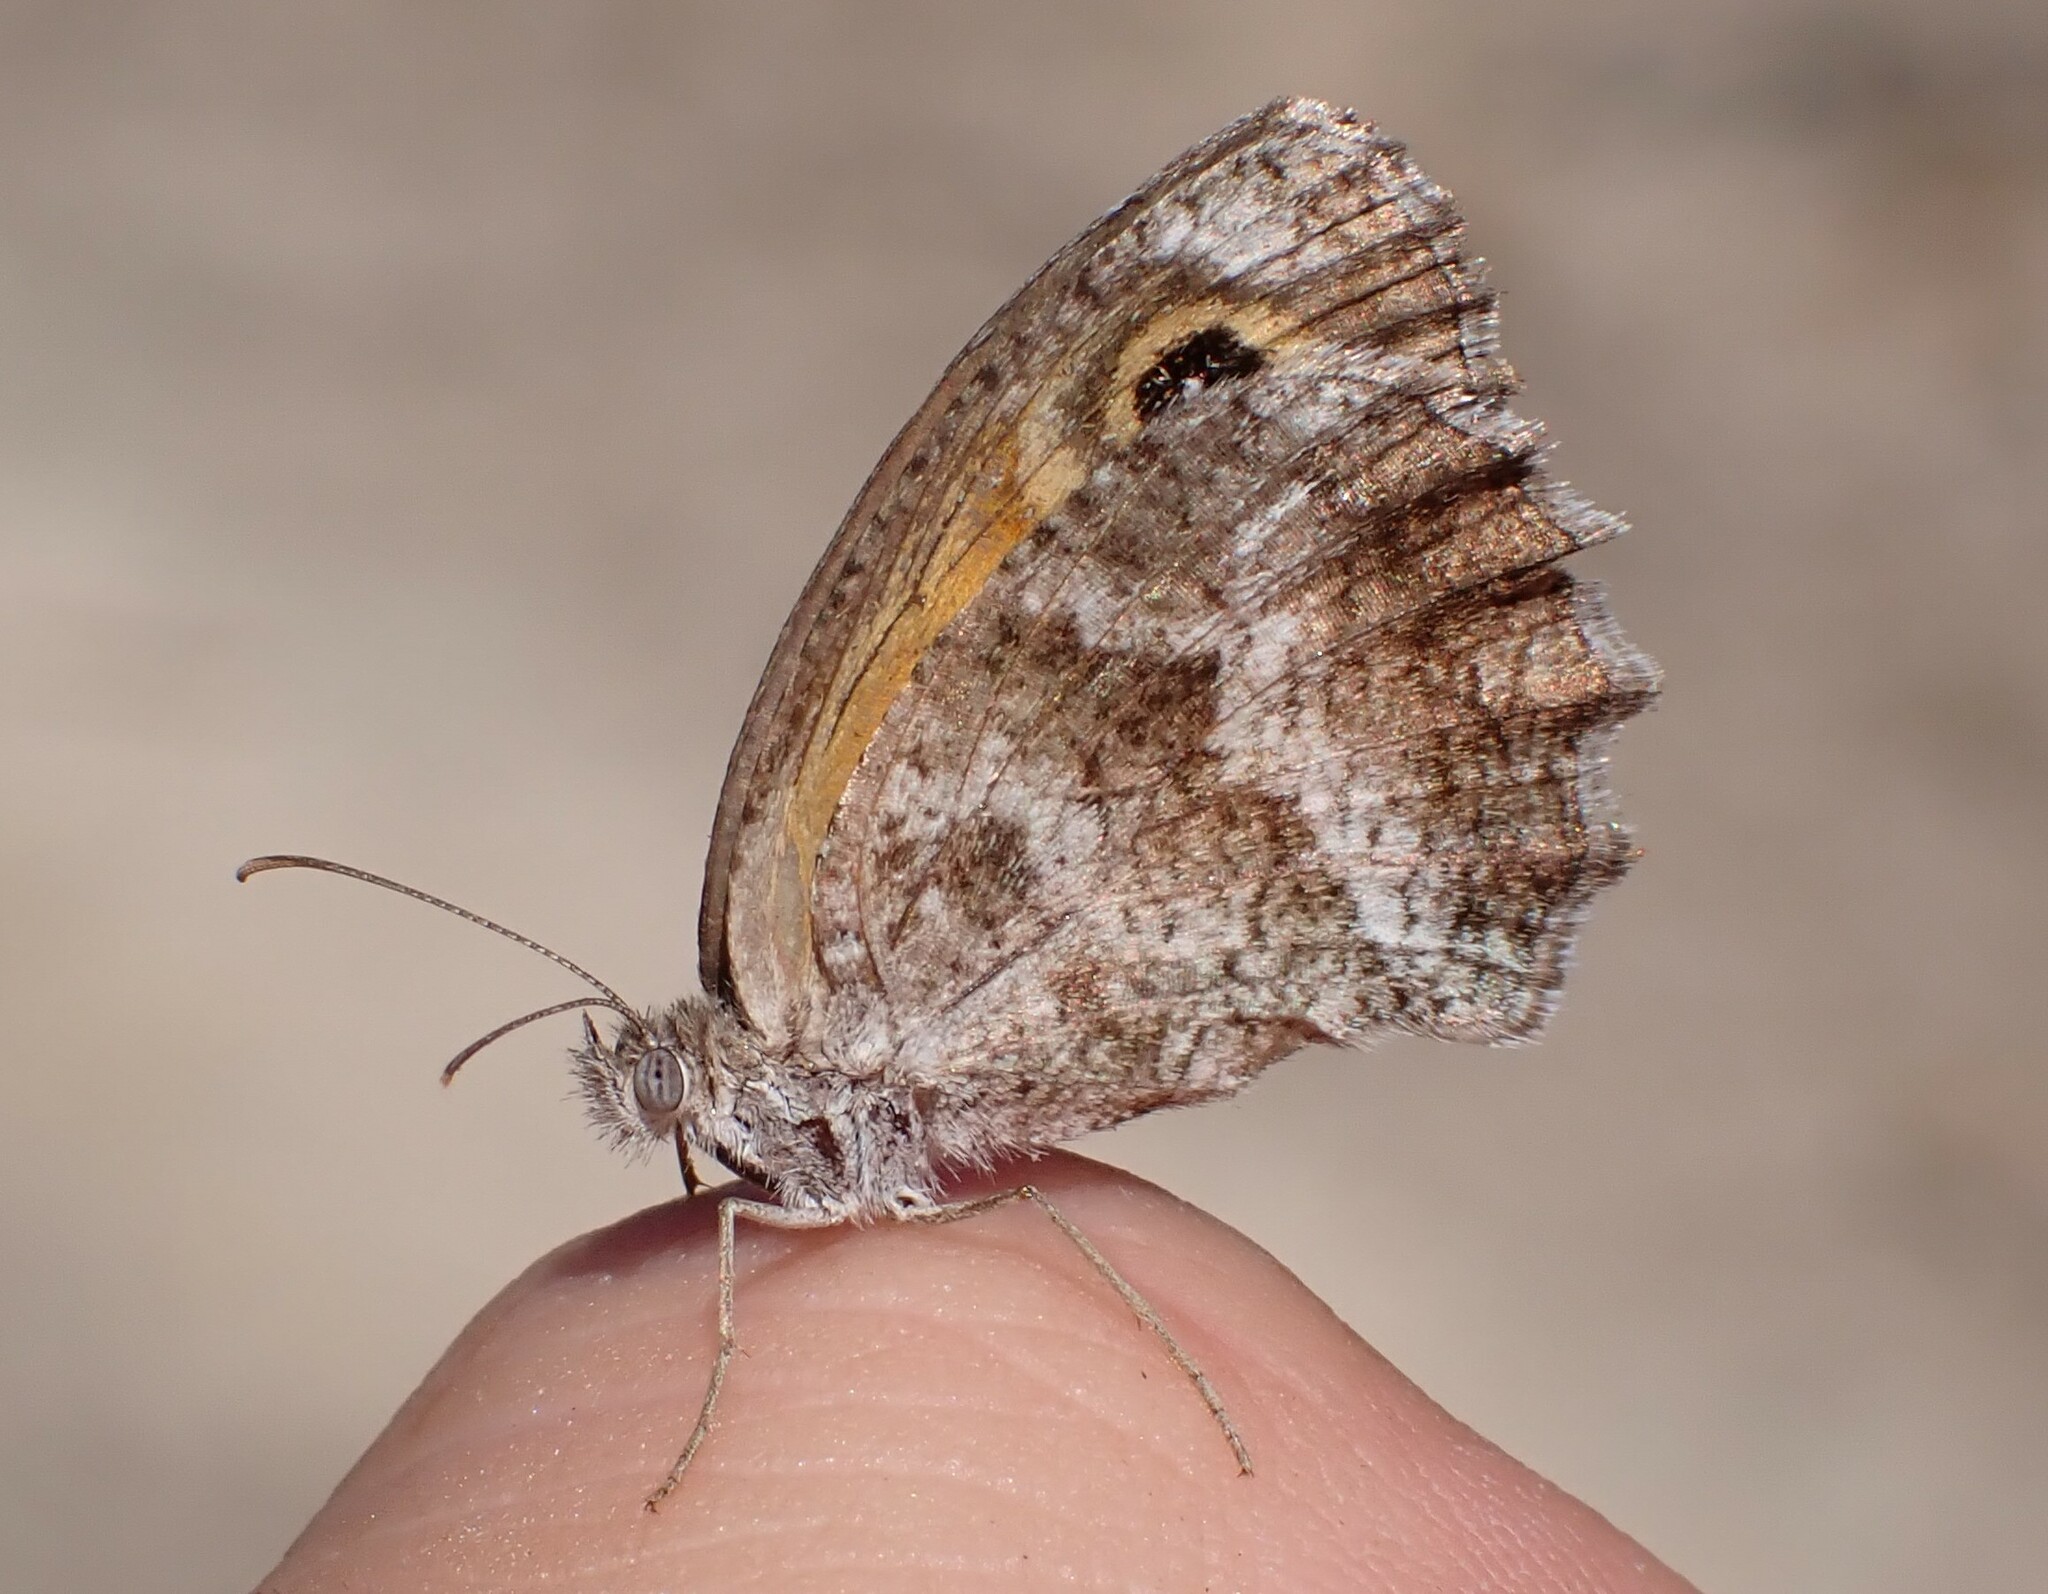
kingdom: Animalia
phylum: Arthropoda
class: Insecta
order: Lepidoptera
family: Nymphalidae
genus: Pyronia
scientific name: Pyronia cecilia
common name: Southern gatekeeper
